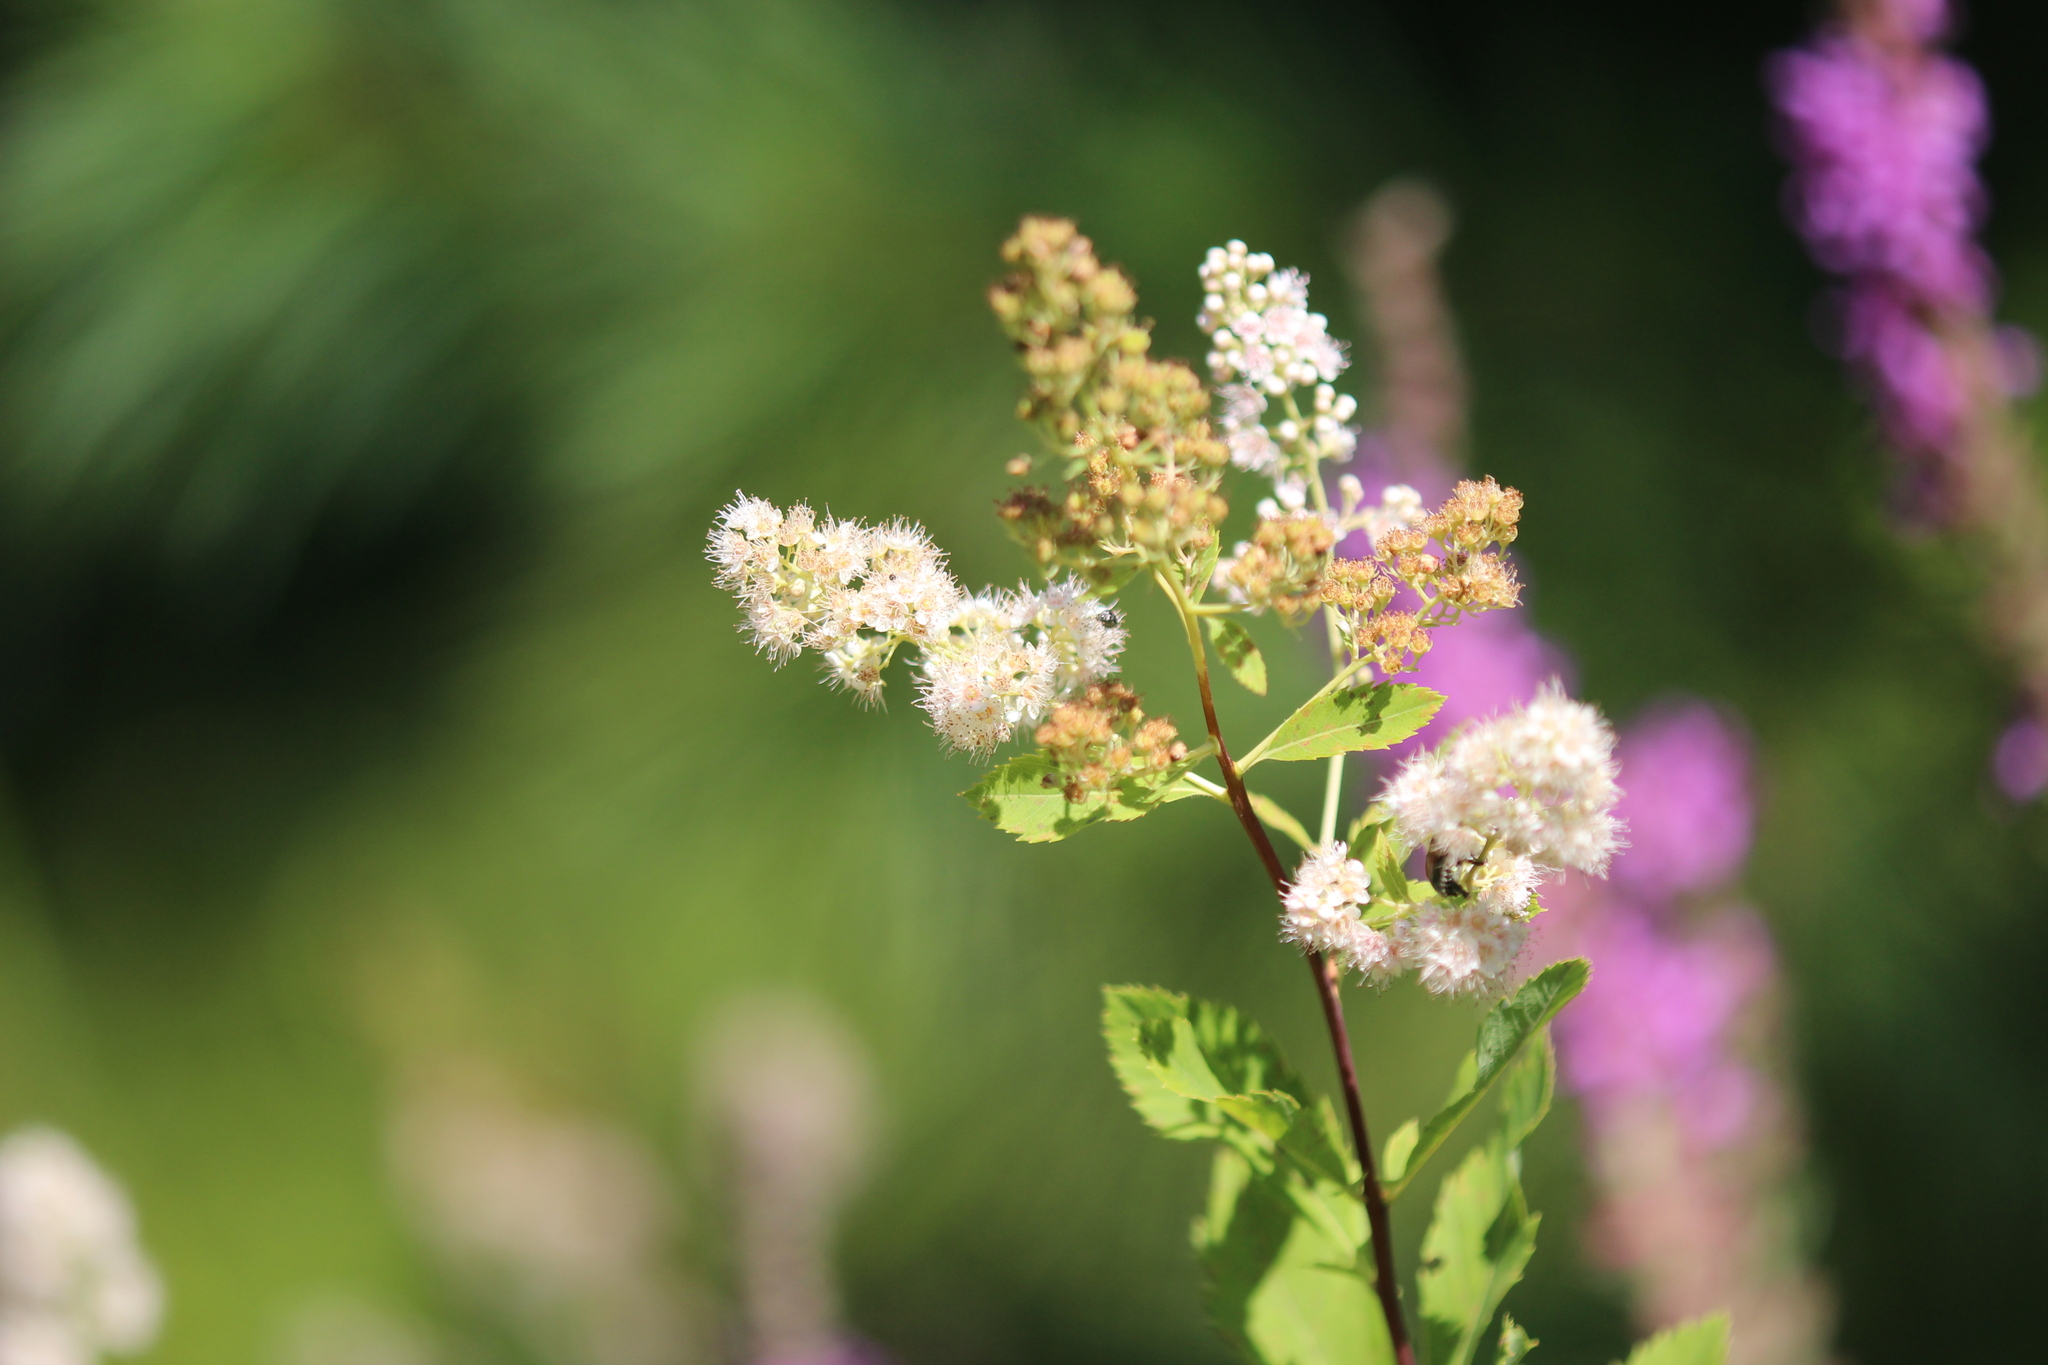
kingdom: Plantae
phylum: Tracheophyta
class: Magnoliopsida
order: Rosales
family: Rosaceae
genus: Spiraea
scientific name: Spiraea alba
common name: Pale bridewort
